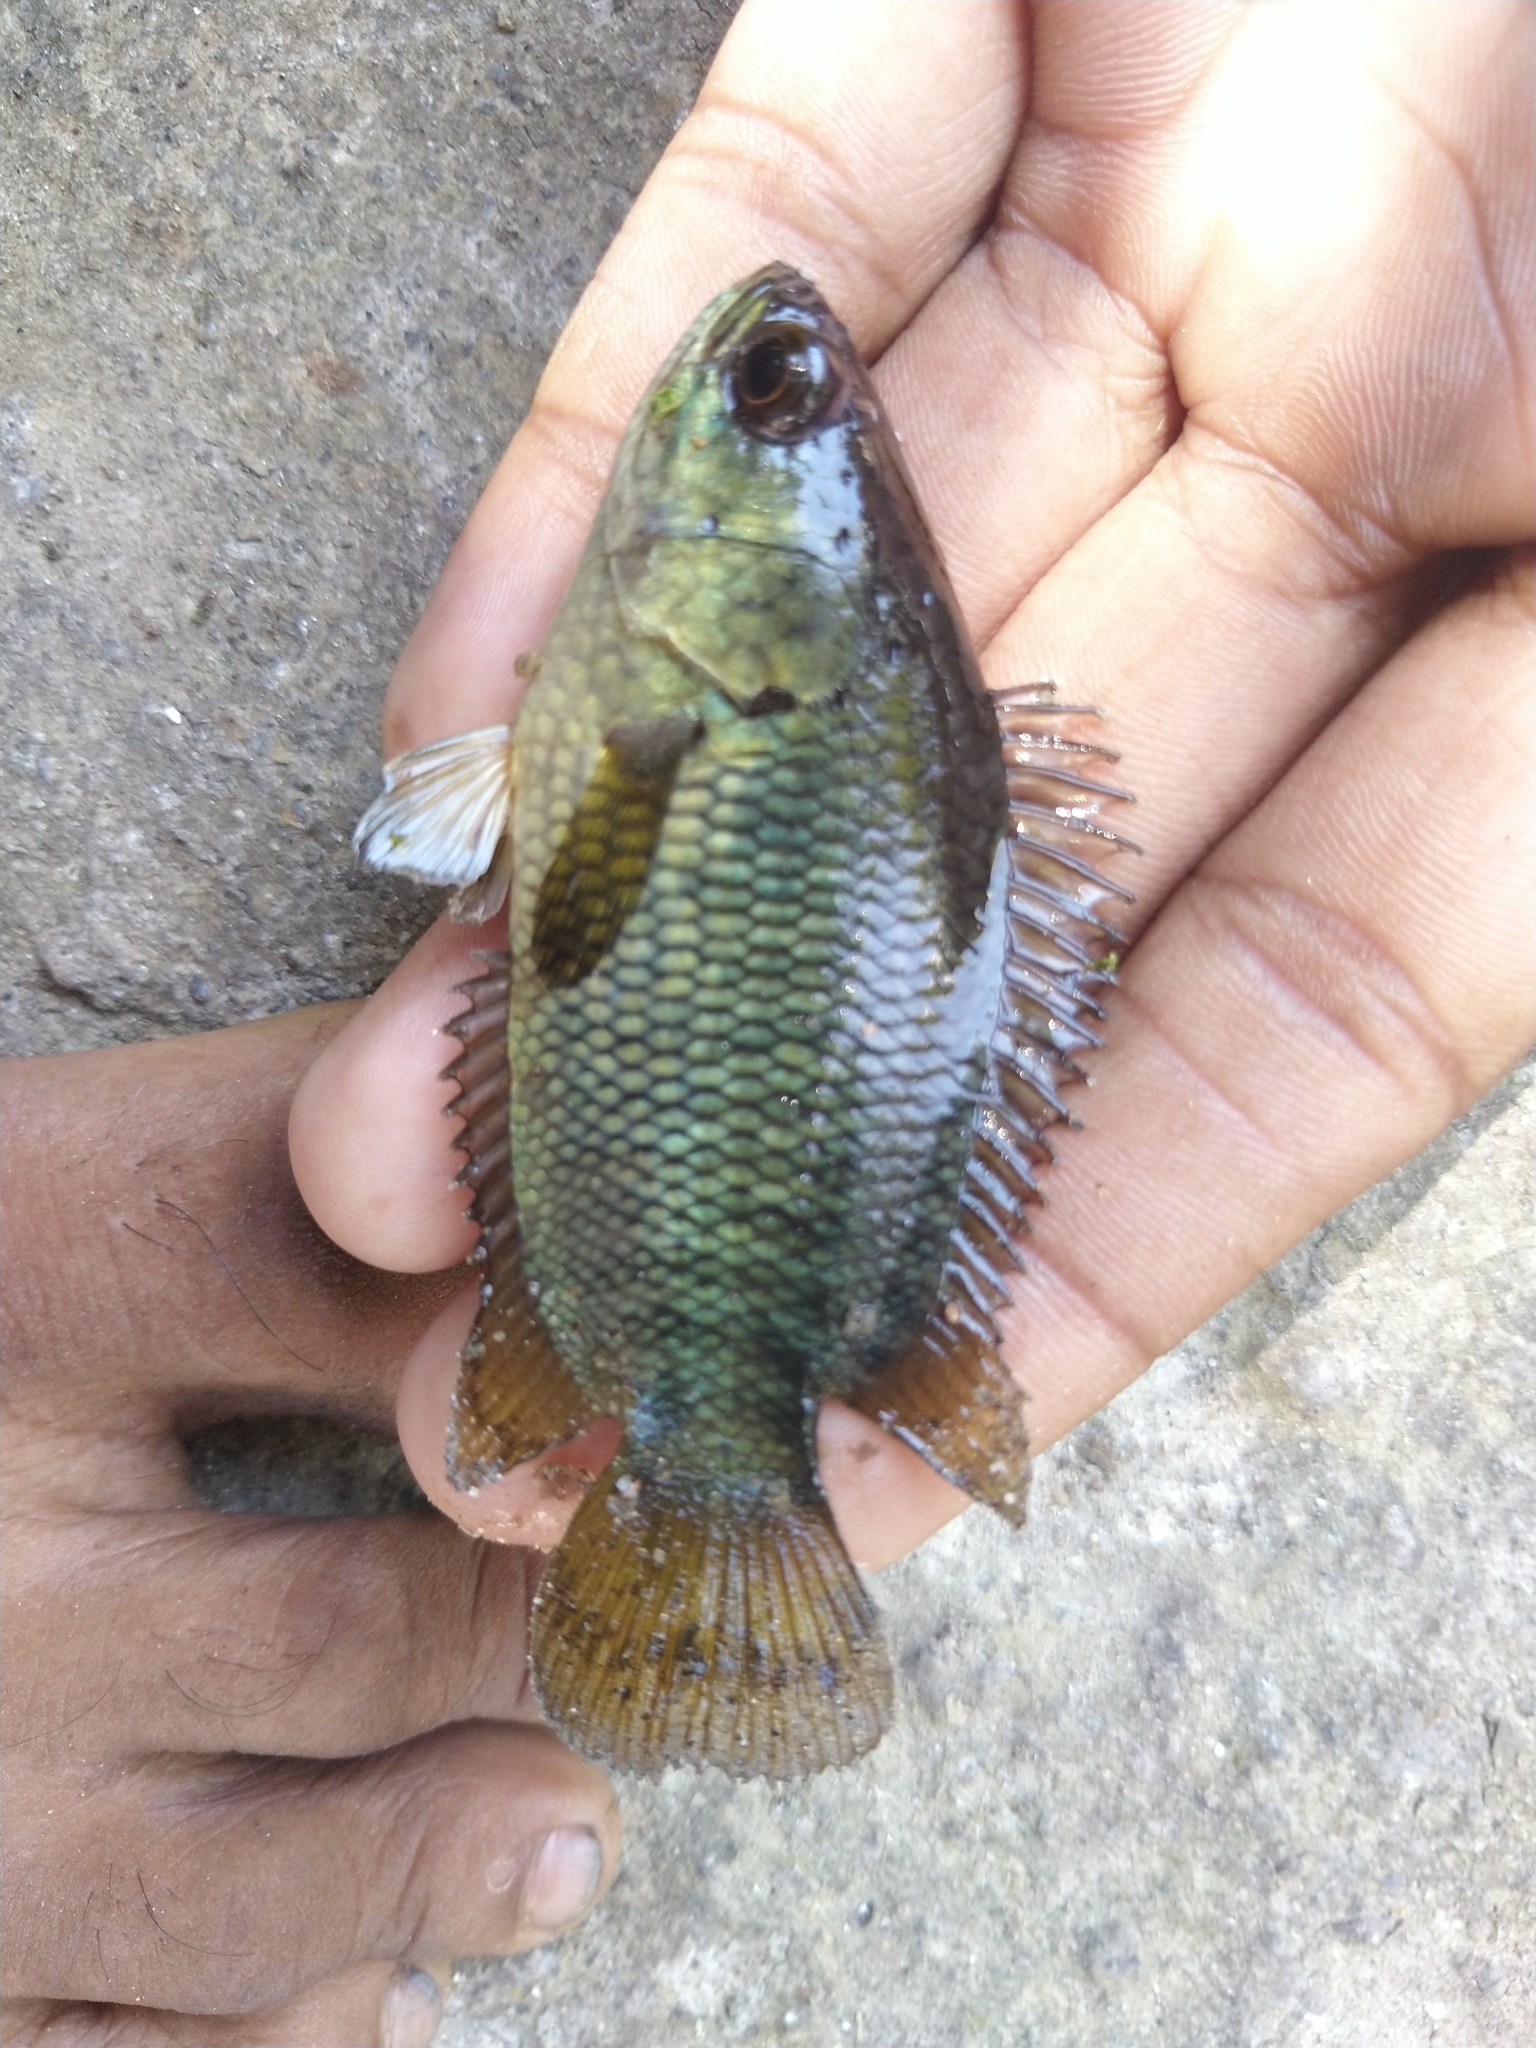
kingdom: Animalia
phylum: Chordata
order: Perciformes
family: Anabantidae
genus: Anabas
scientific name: Anabas testudineus
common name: Climbing perch
